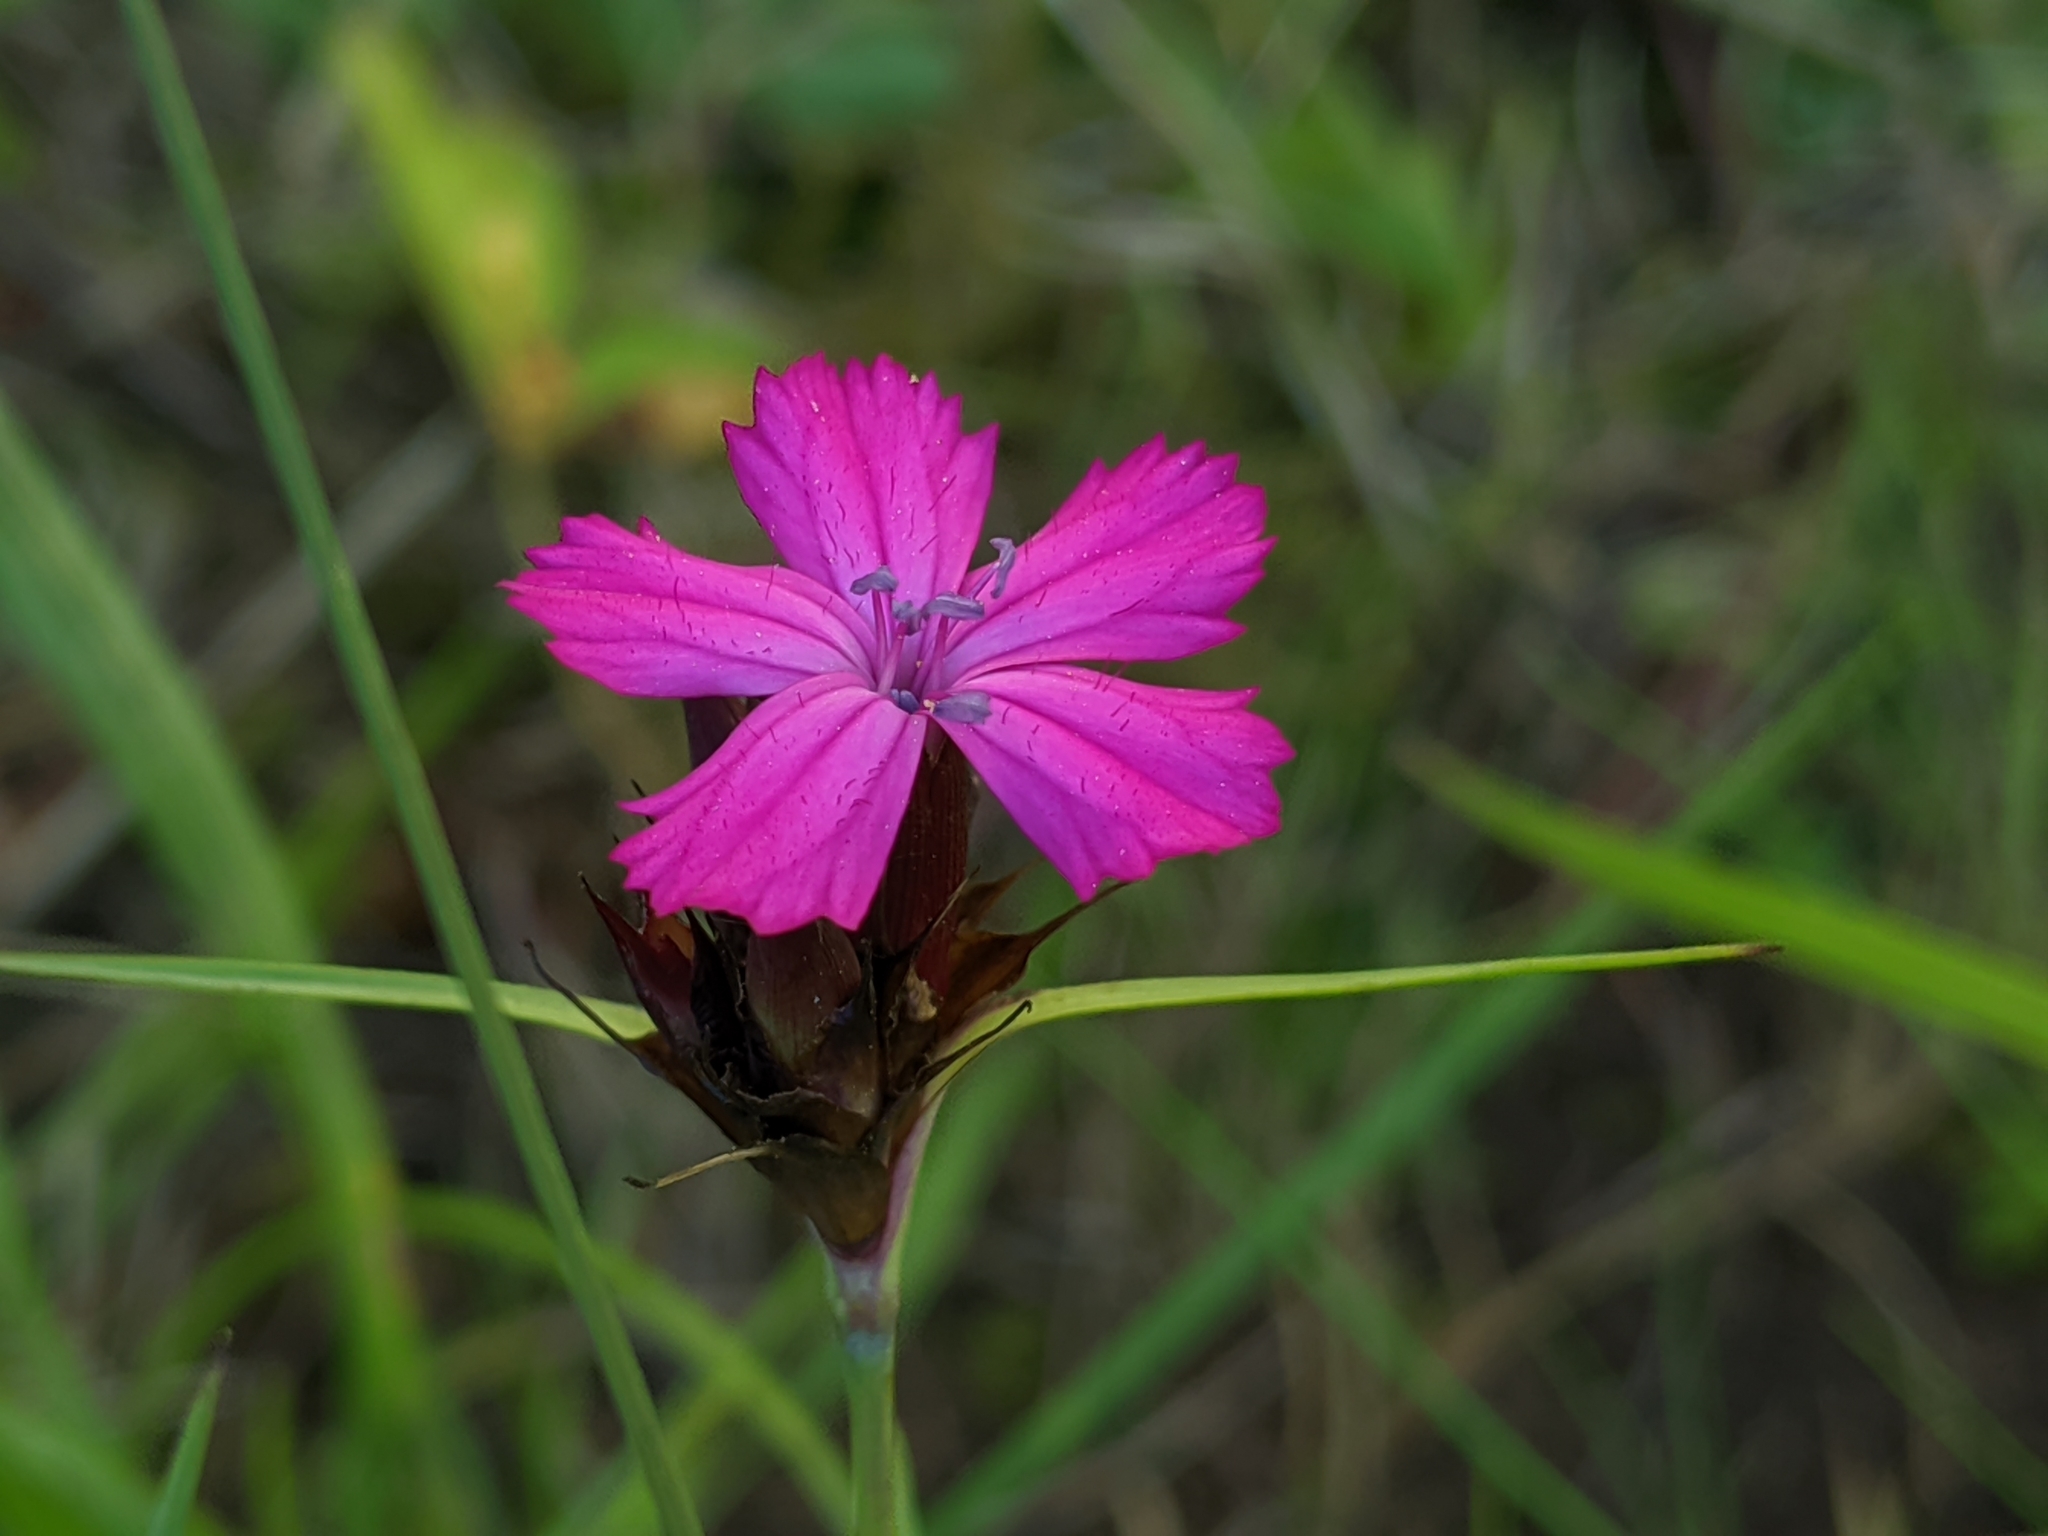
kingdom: Plantae
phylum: Tracheophyta
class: Magnoliopsida
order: Caryophyllales
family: Caryophyllaceae
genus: Dianthus
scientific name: Dianthus carthusianorum
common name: Carthusian pink
